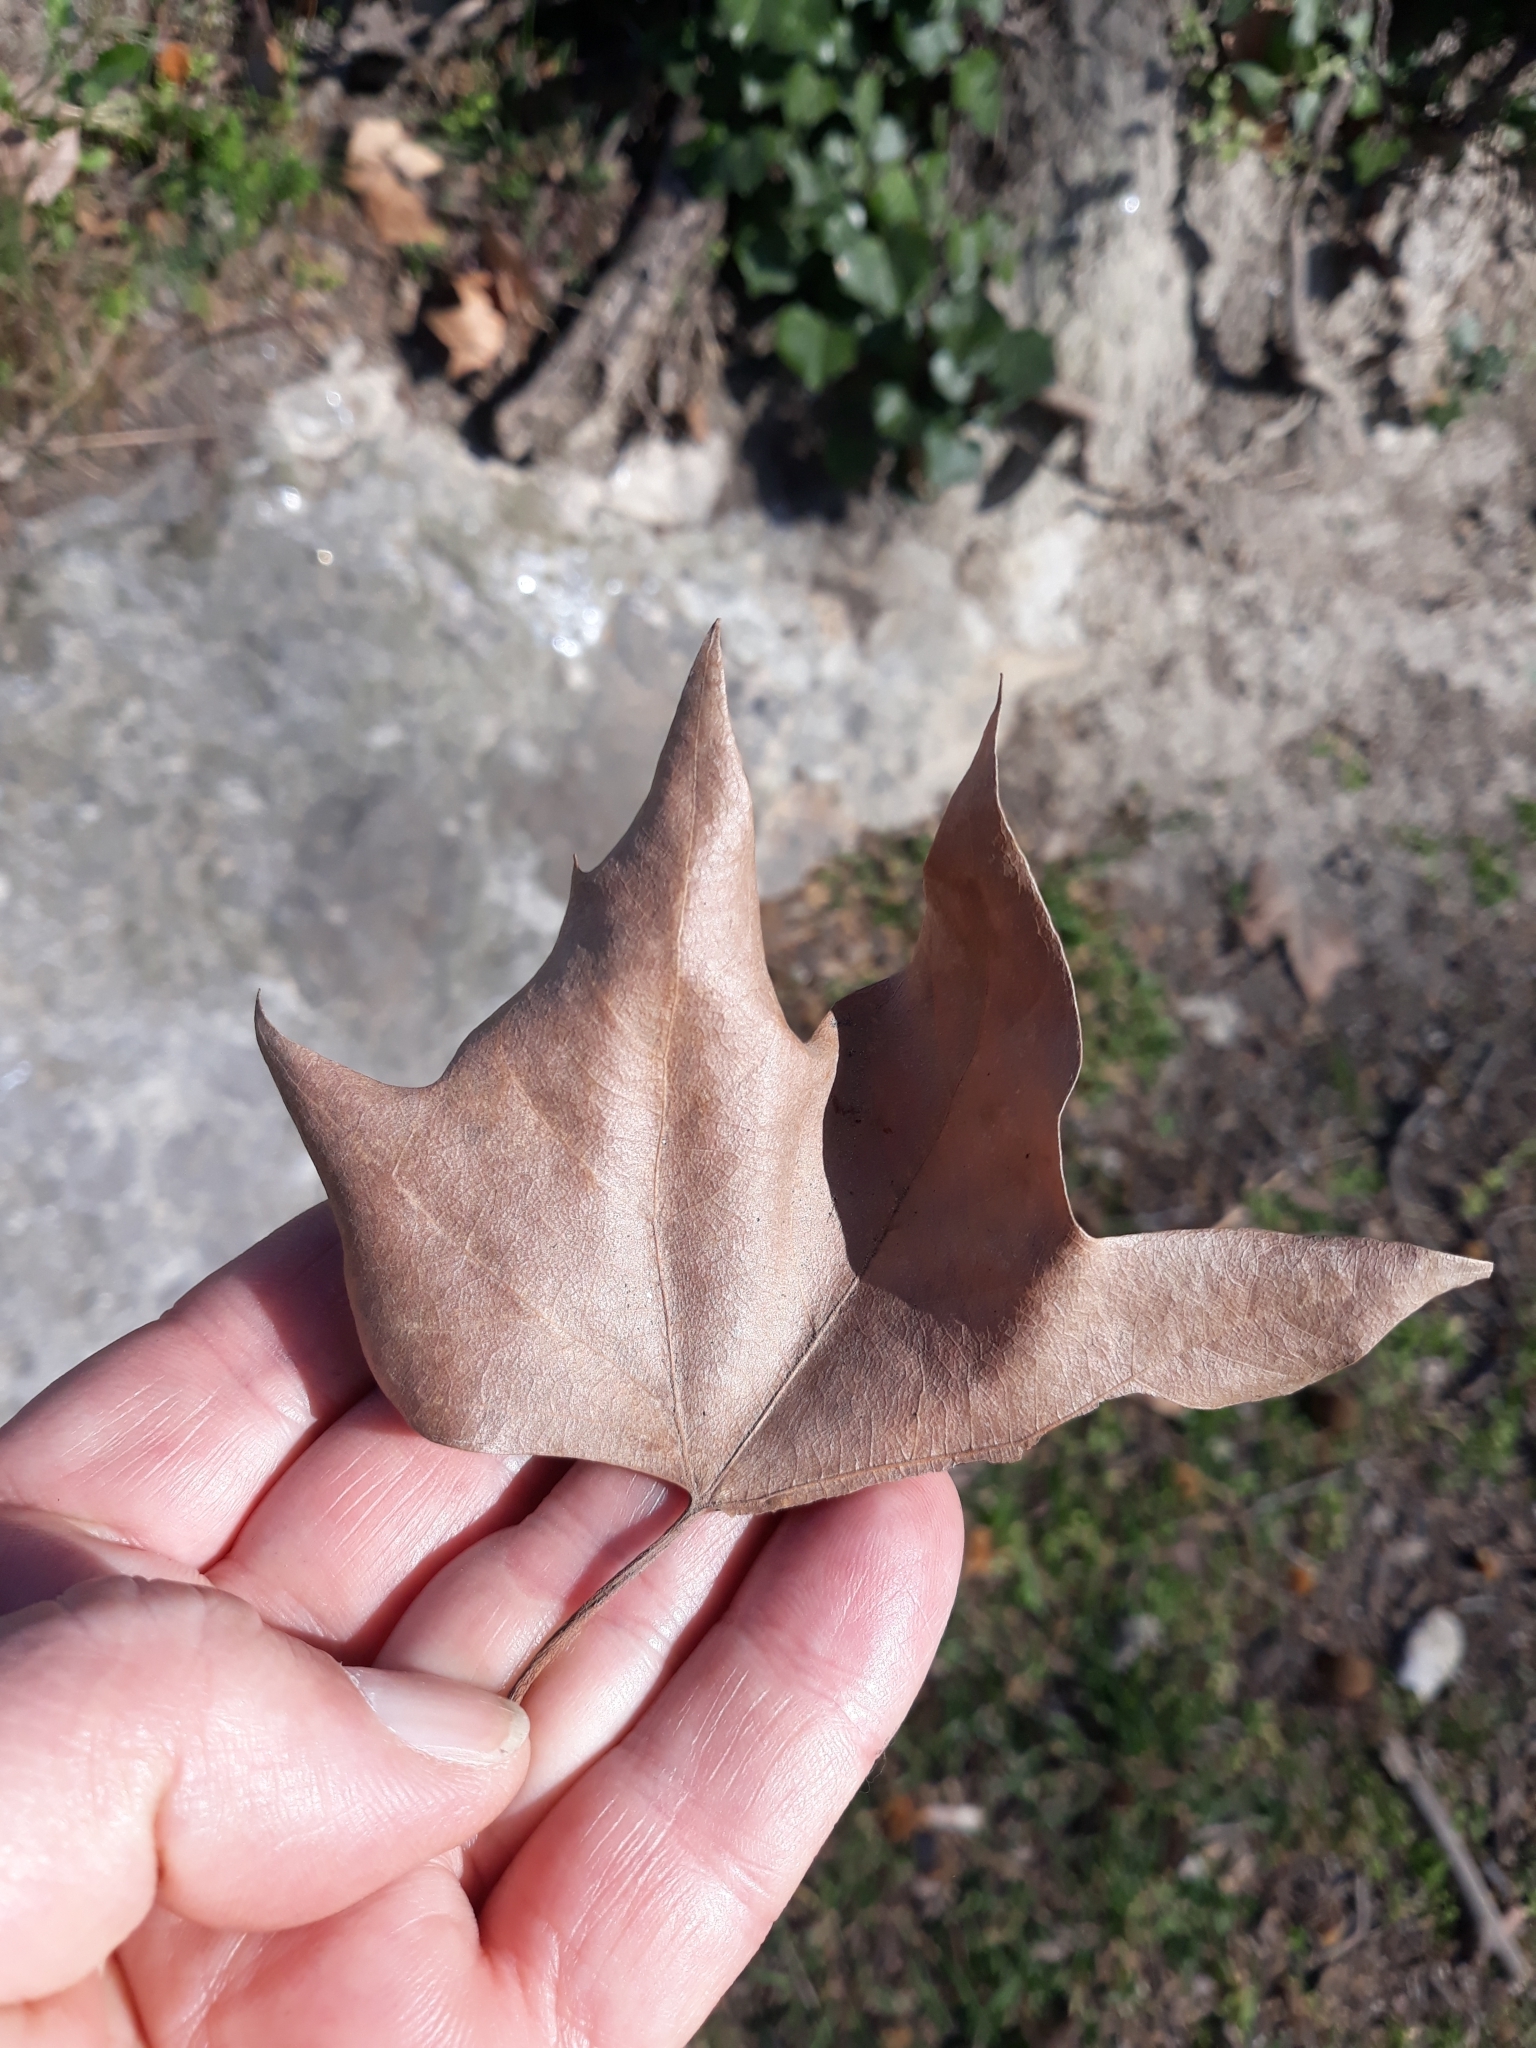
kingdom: Plantae
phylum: Tracheophyta
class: Magnoliopsida
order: Proteales
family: Platanaceae
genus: Platanus
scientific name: Platanus hispanica
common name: London plane
